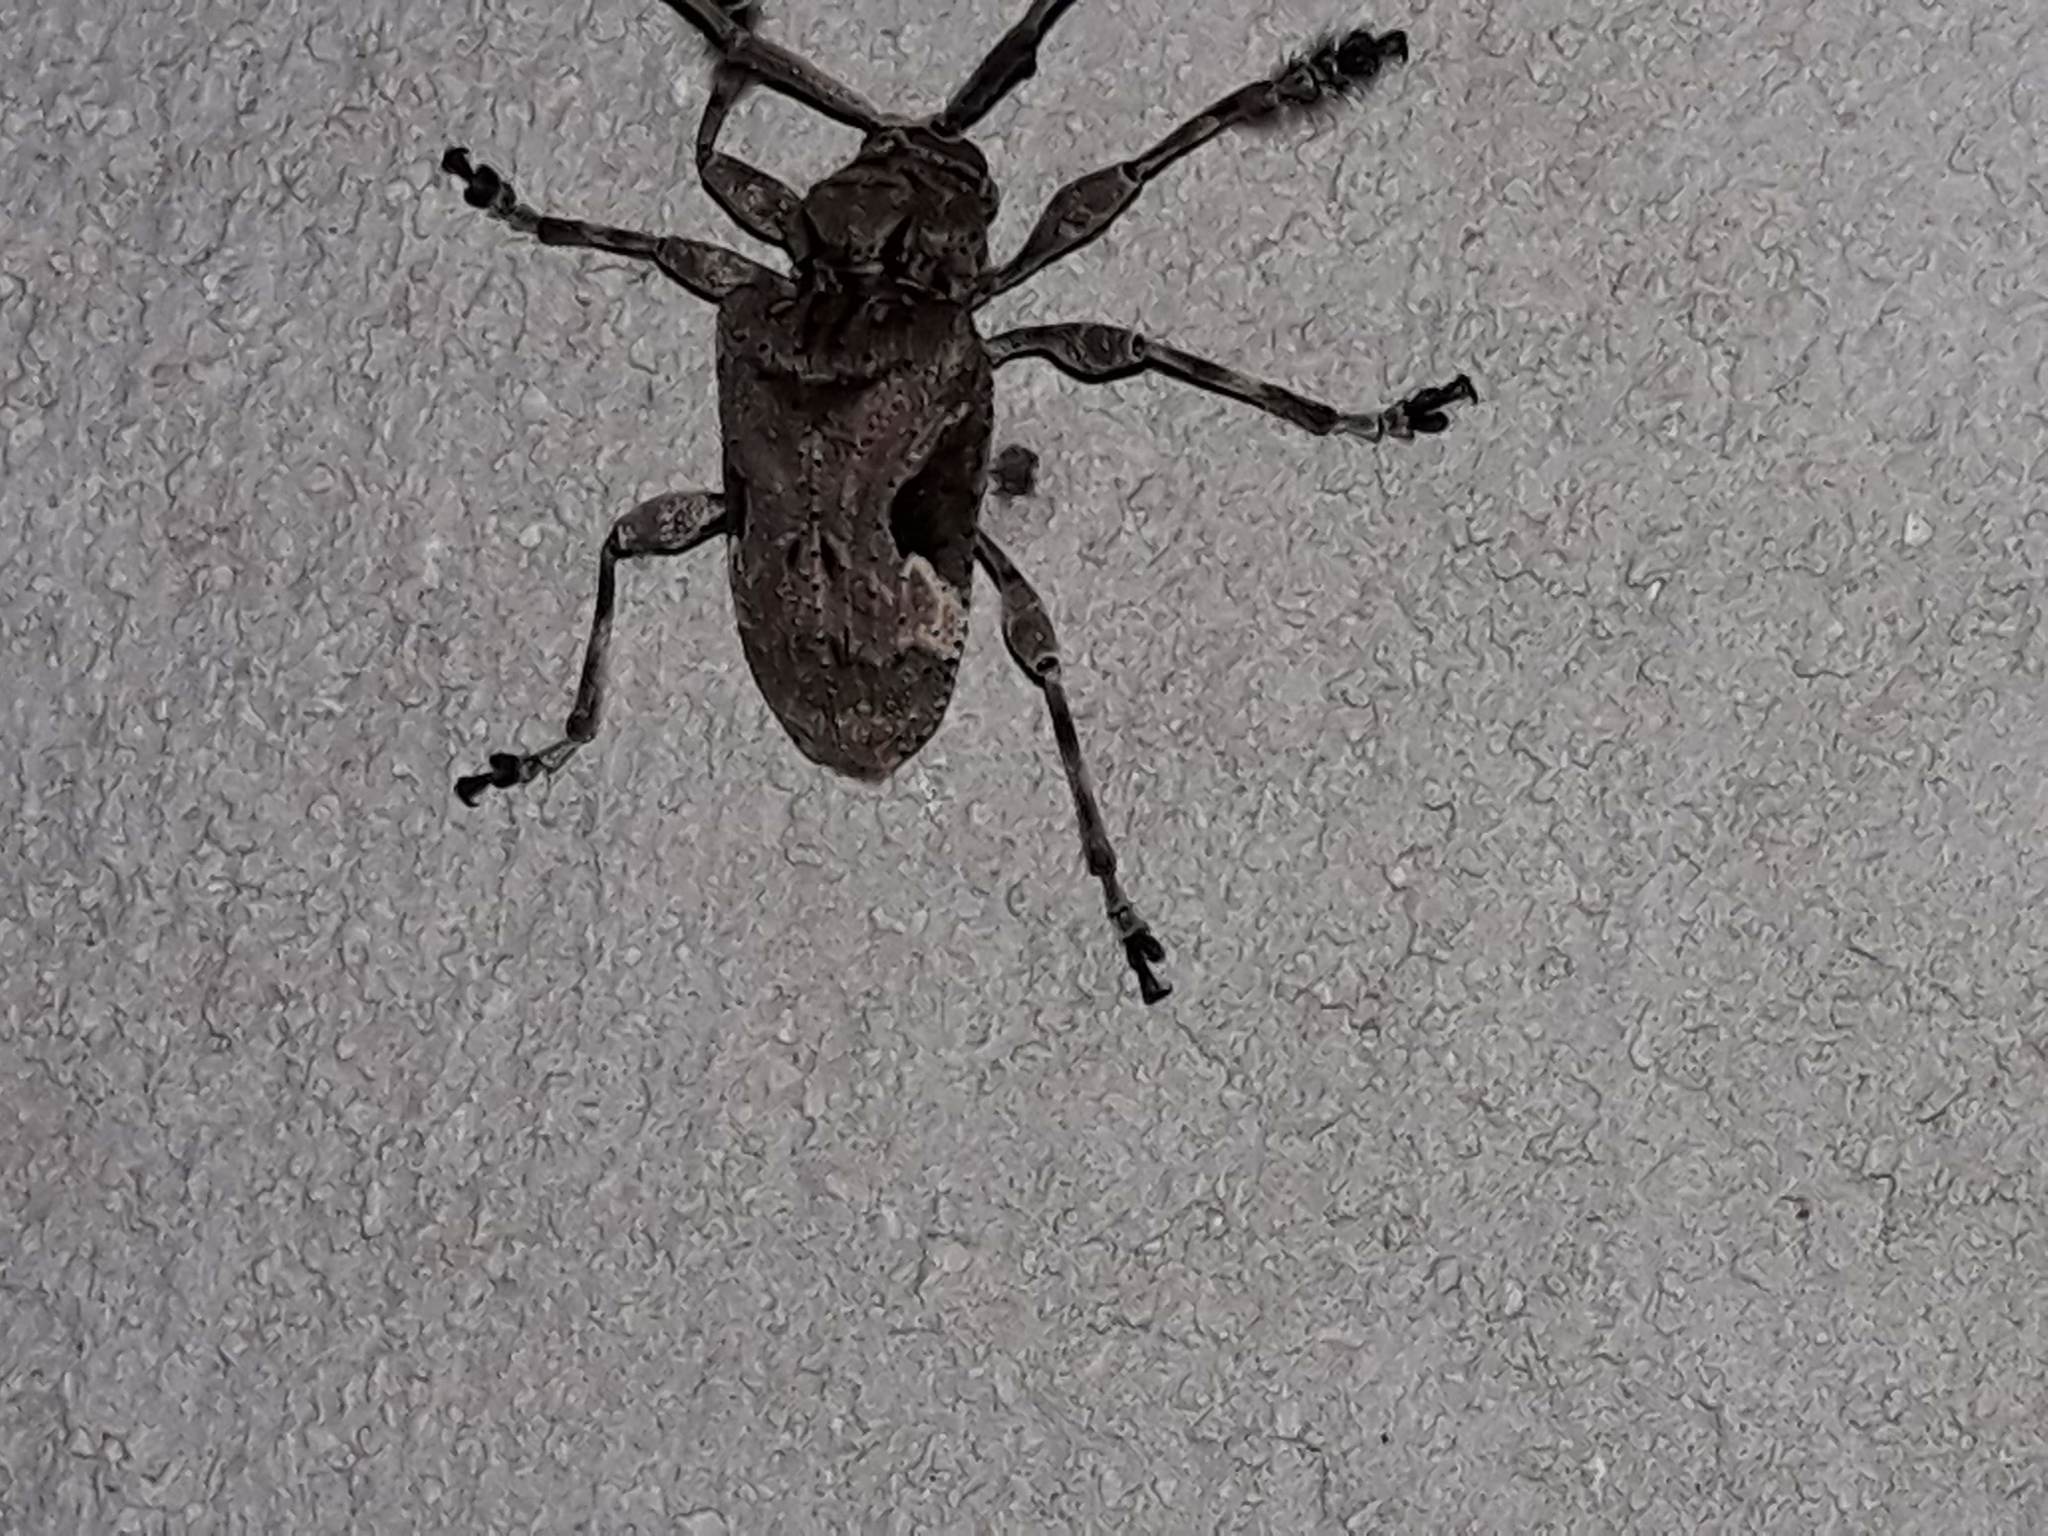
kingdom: Animalia
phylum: Arthropoda
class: Insecta
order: Coleoptera
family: Cerambycidae
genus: Lagocheirus
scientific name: Lagocheirus araneiformis
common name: Beetle
